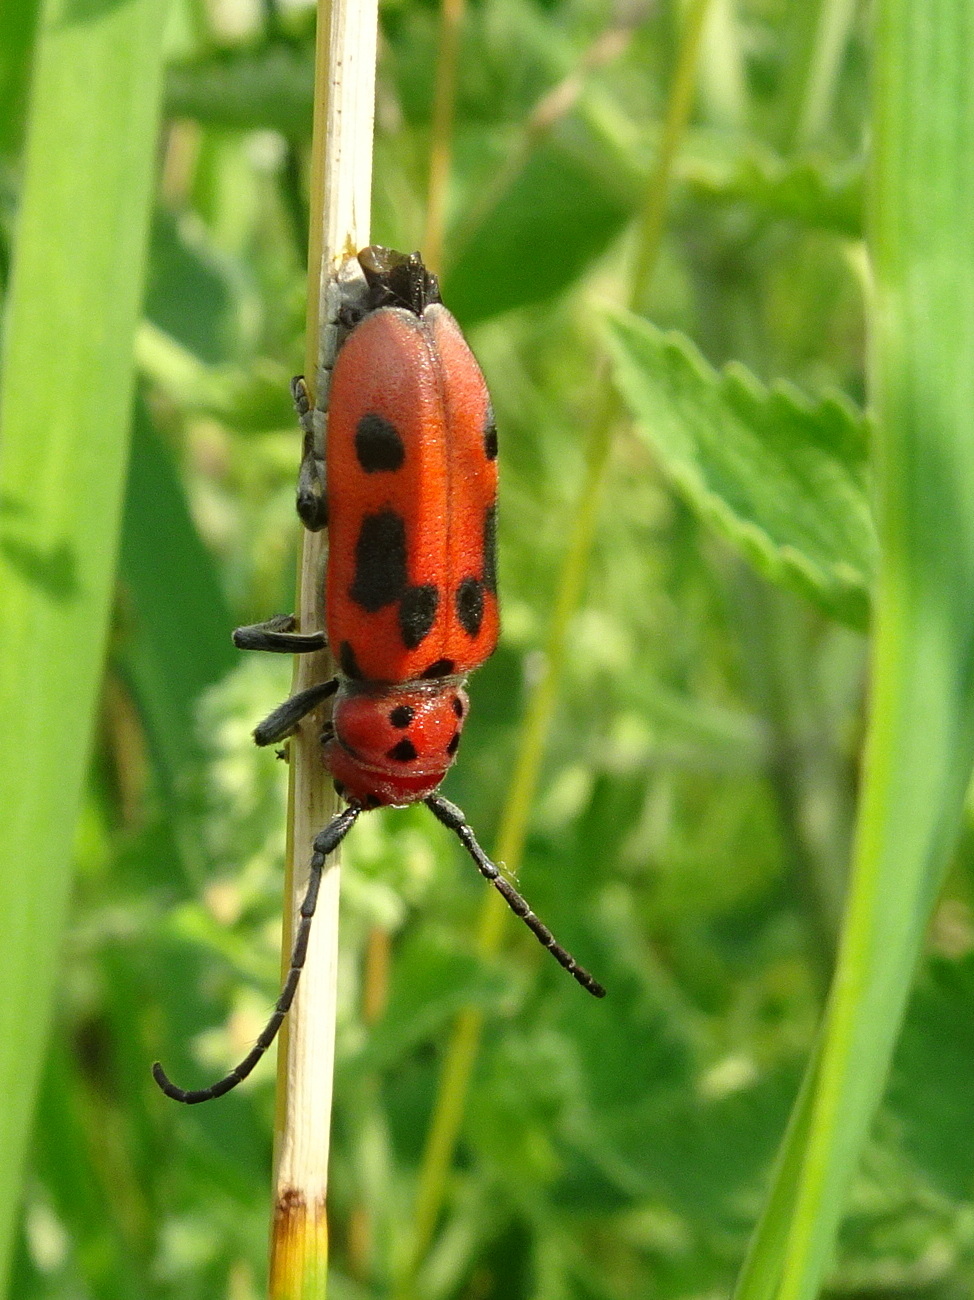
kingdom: Animalia
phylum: Arthropoda
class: Insecta
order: Coleoptera
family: Cerambycidae
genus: Tetraopes
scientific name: Tetraopes tetrophthalmus
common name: Red milkweed beetle
